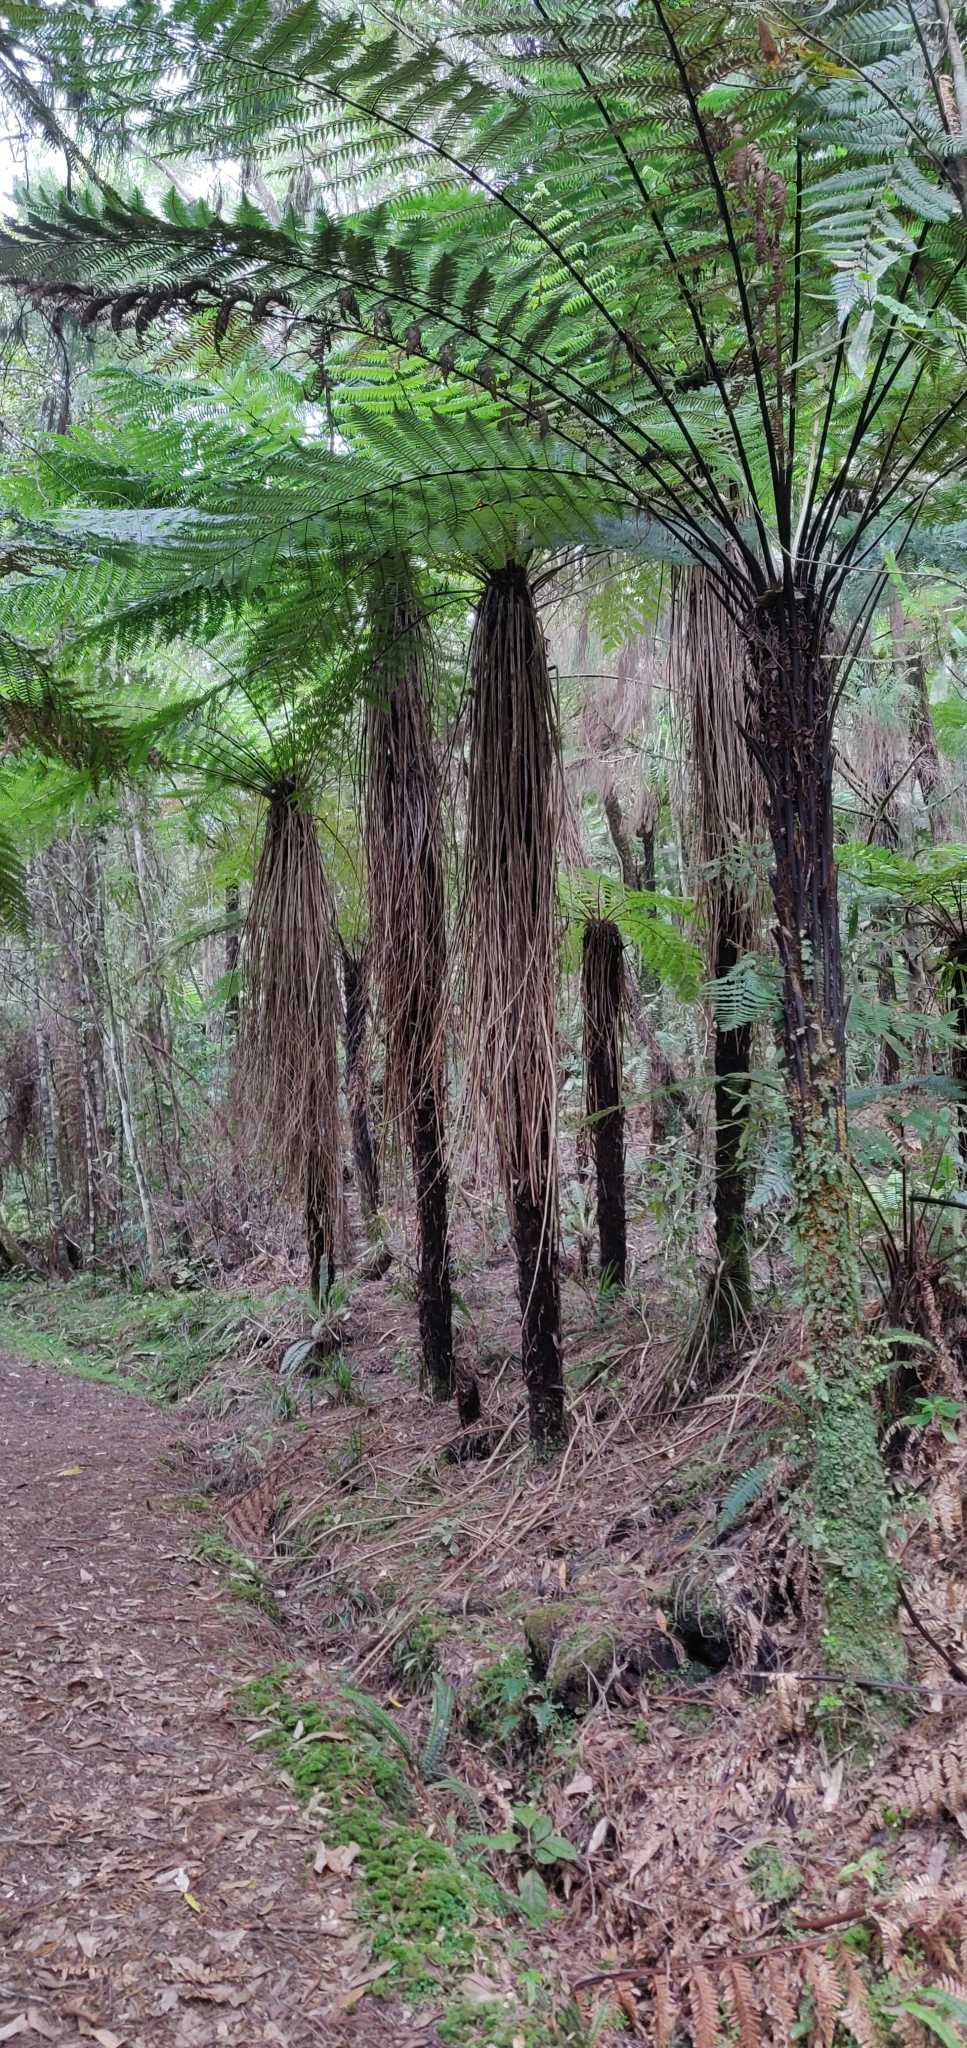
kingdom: Plantae
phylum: Tracheophyta
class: Polypodiopsida
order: Cyatheales
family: Cyatheaceae
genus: Alsophila
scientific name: Alsophila smithii
